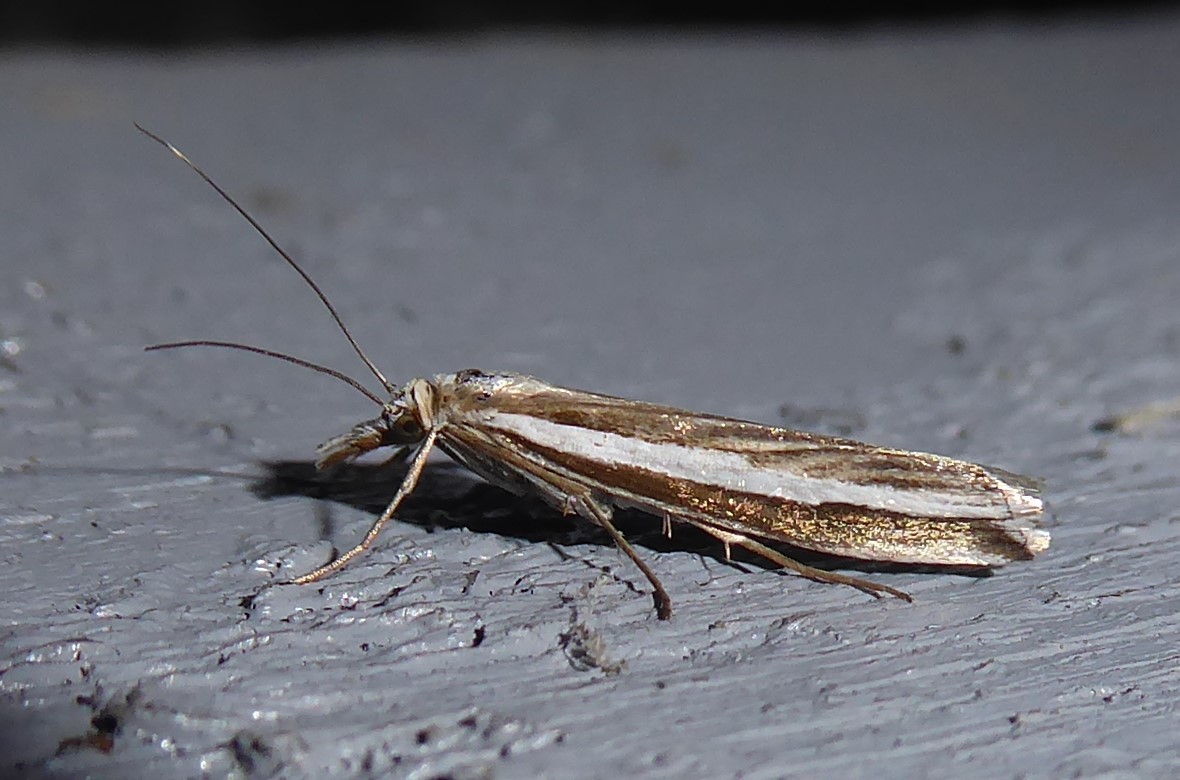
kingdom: Animalia
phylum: Arthropoda
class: Insecta
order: Lepidoptera
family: Crambidae
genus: Orocrambus
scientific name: Orocrambus vittellus
